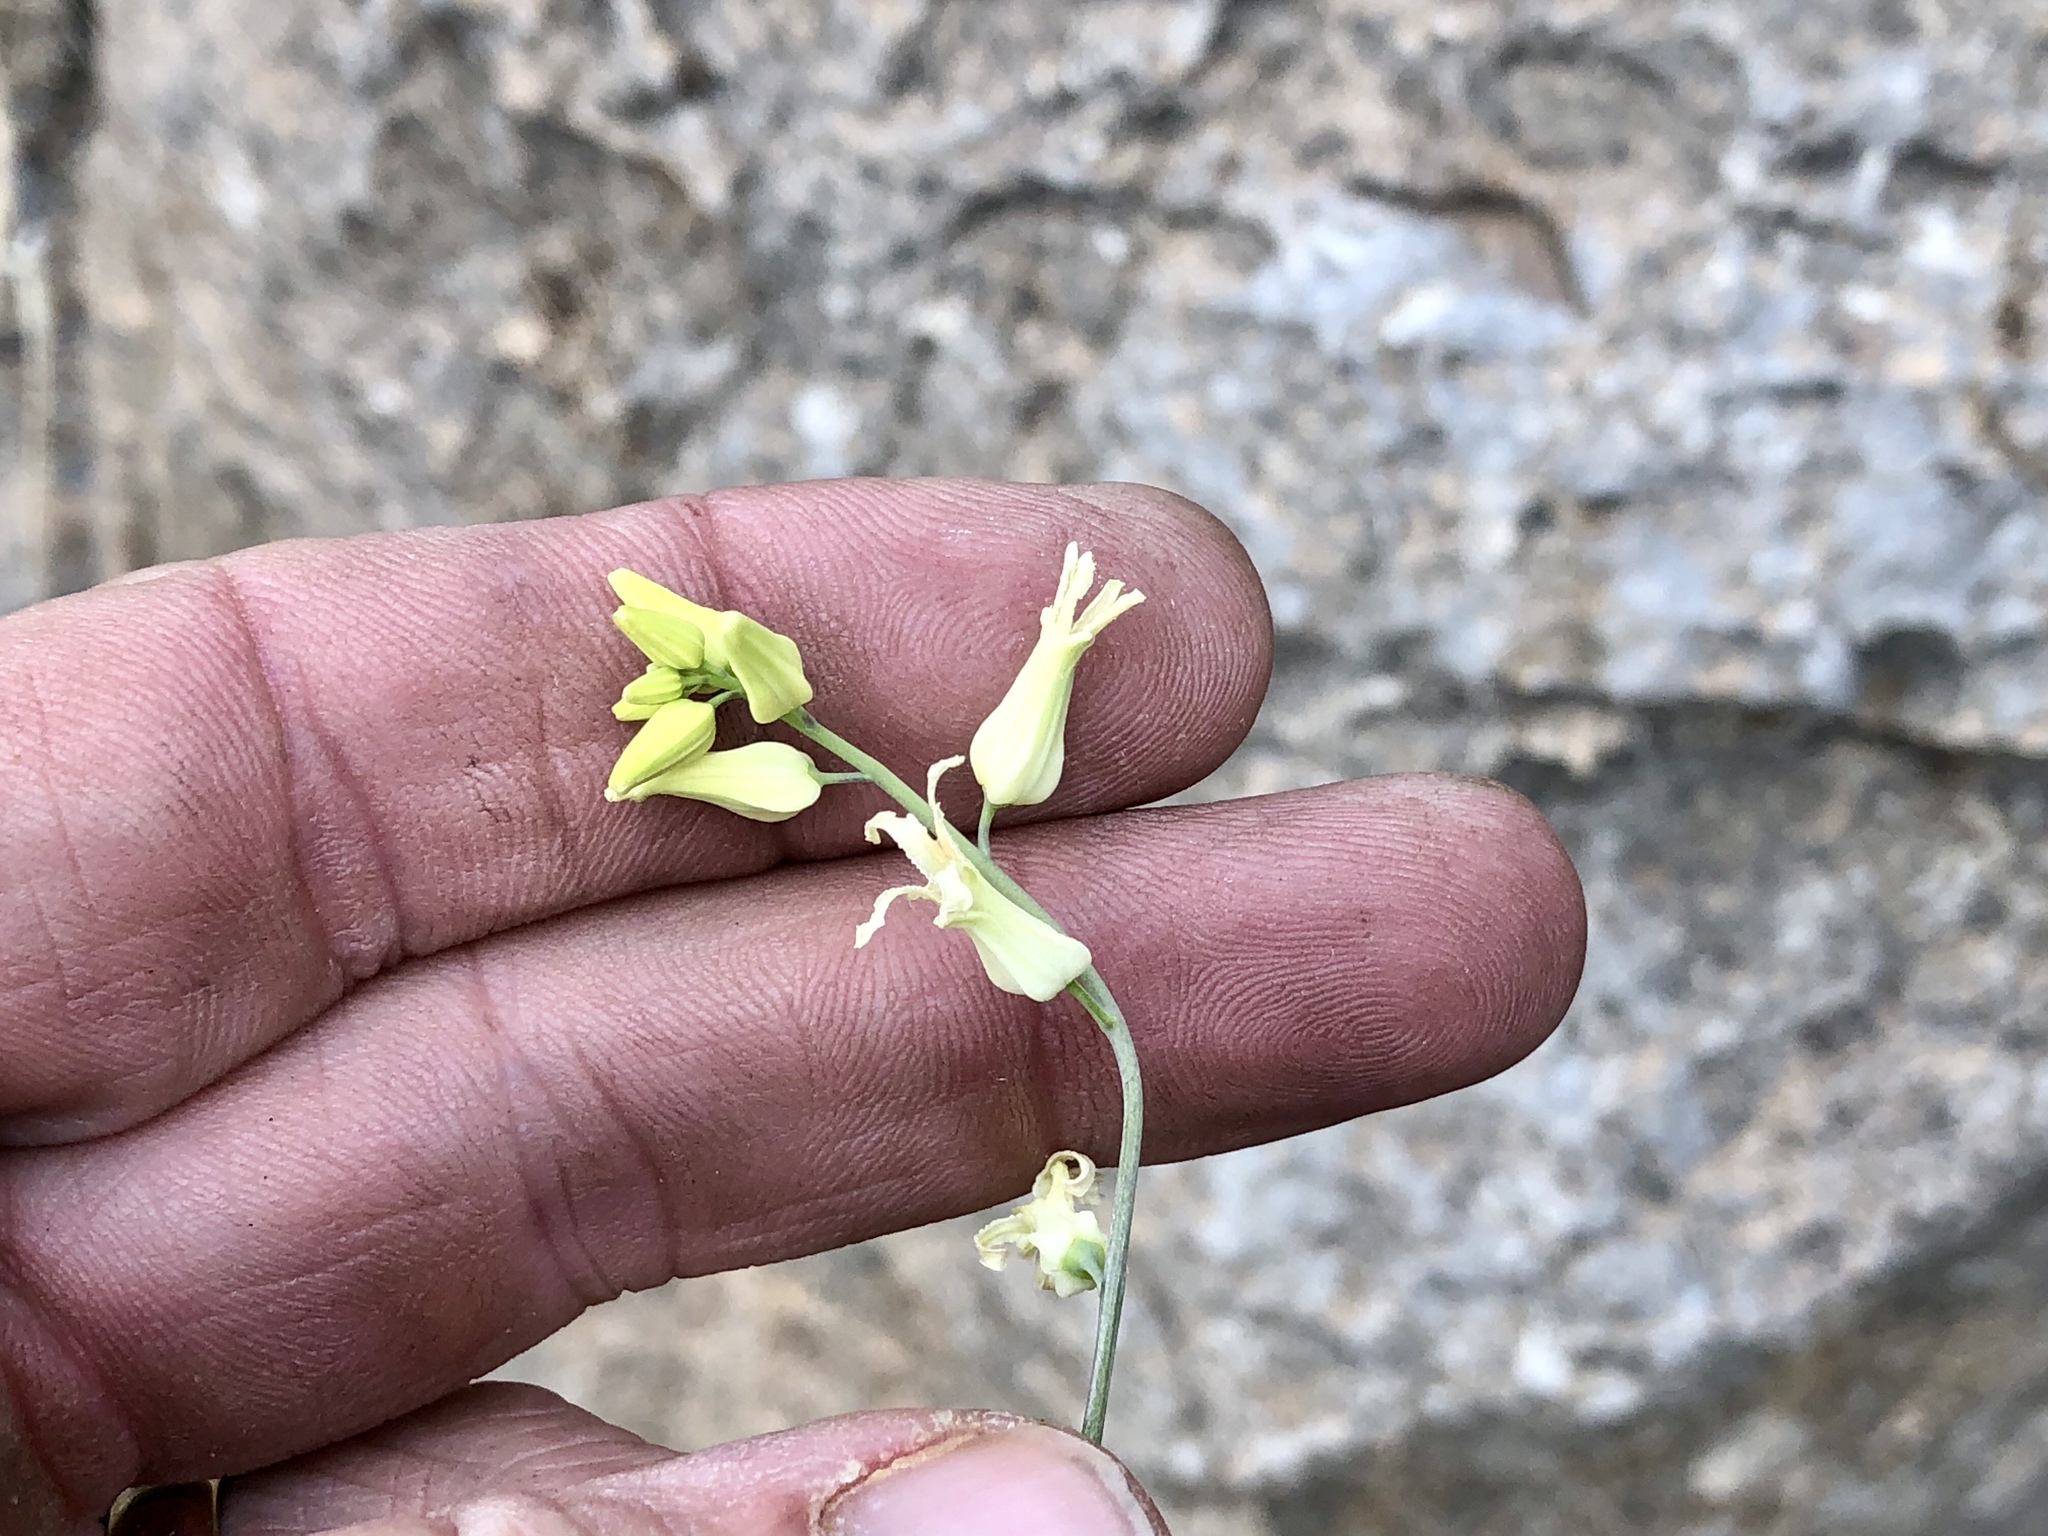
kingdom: Plantae
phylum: Tracheophyta
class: Magnoliopsida
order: Brassicales
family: Brassicaceae
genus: Streptanthus
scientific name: Streptanthus carinatus
